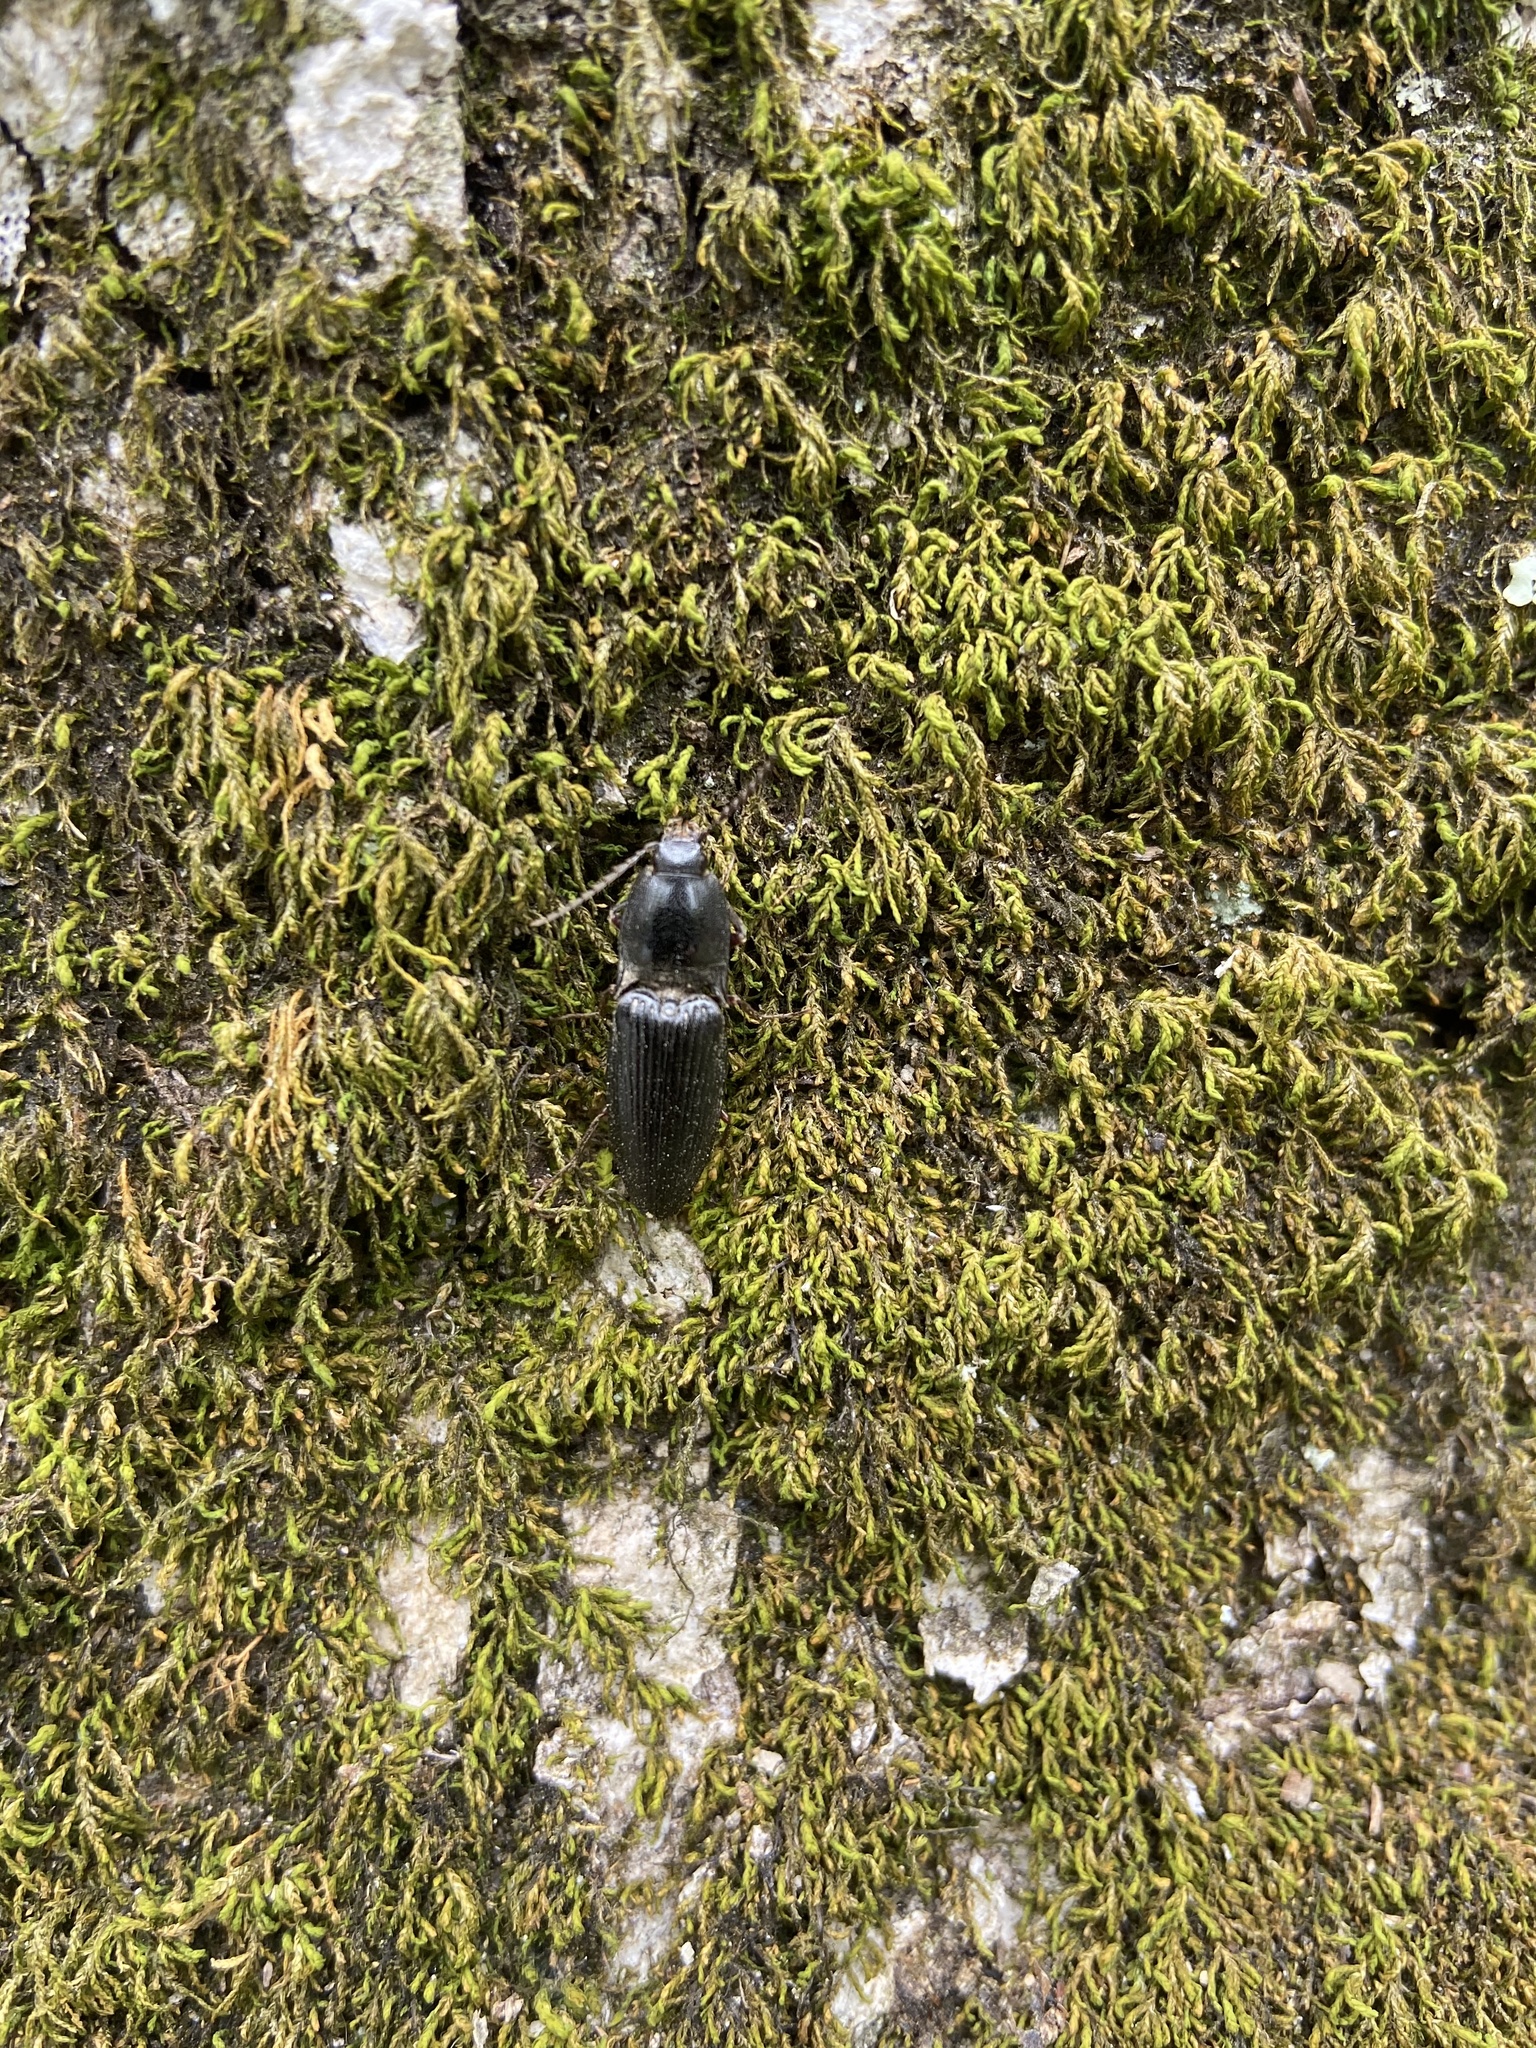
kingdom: Animalia
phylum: Arthropoda
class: Insecta
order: Coleoptera
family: Elateridae
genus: Neopristilophus
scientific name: Neopristilophus
